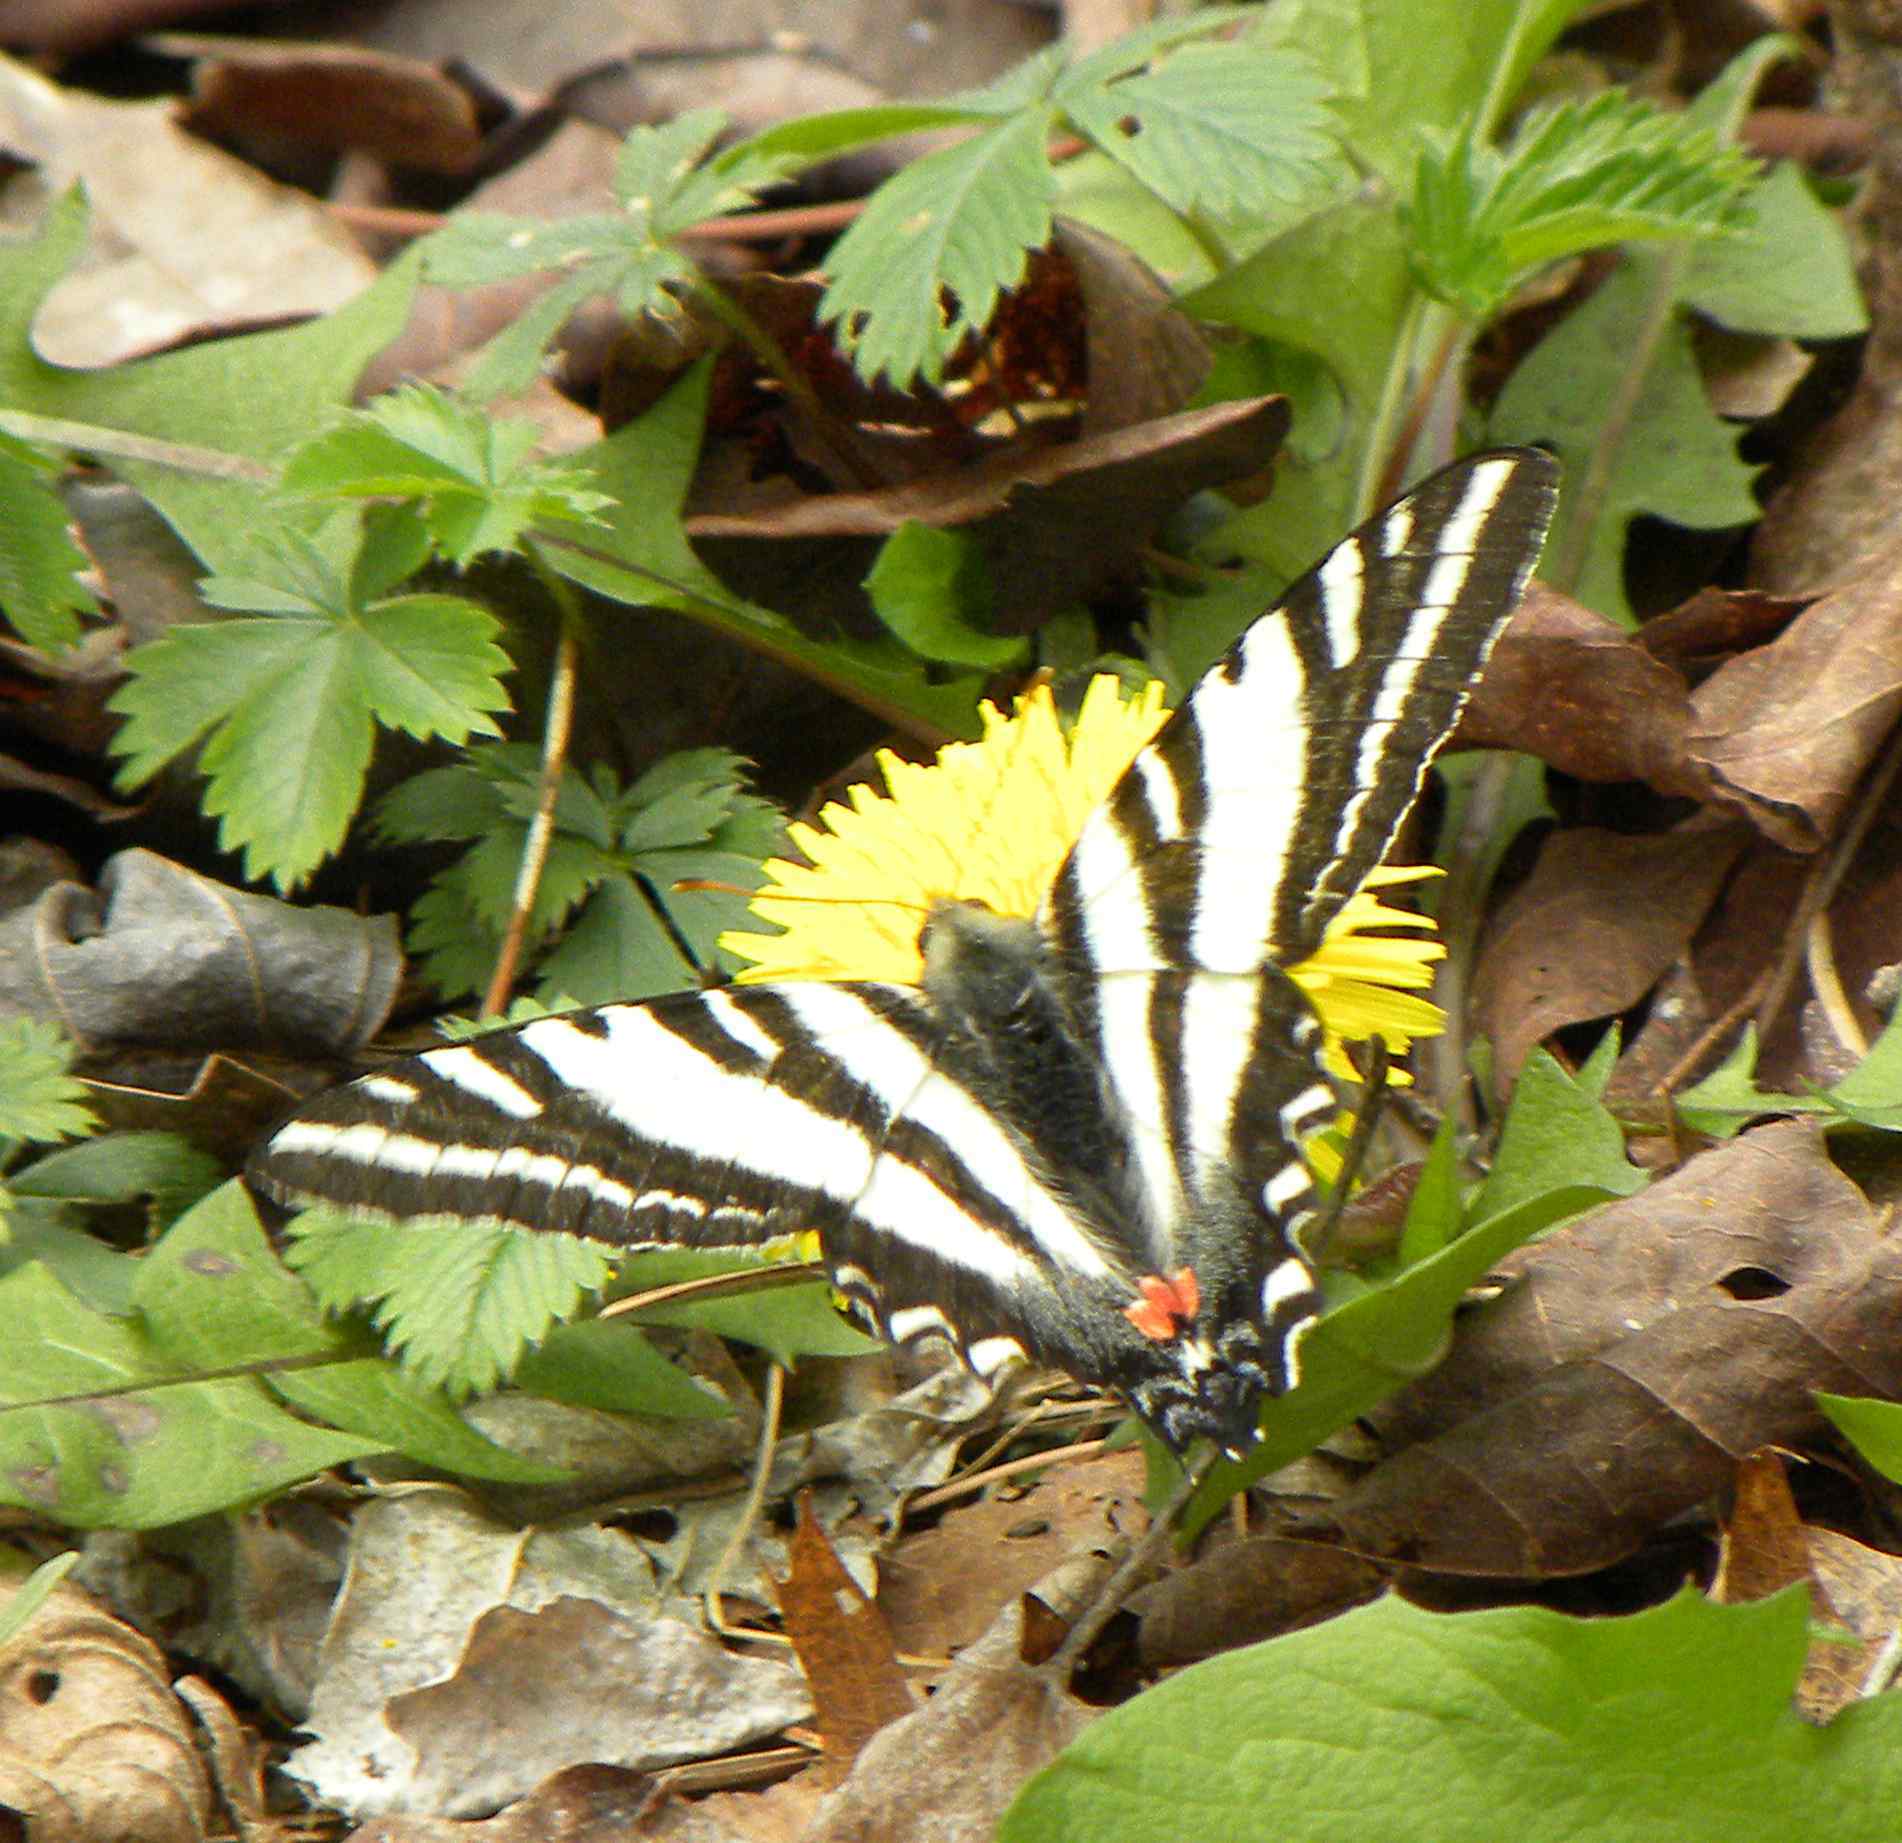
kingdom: Animalia
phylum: Arthropoda
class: Insecta
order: Lepidoptera
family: Papilionidae
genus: Protographium
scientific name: Protographium marcellus
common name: Zebra swallowtail
